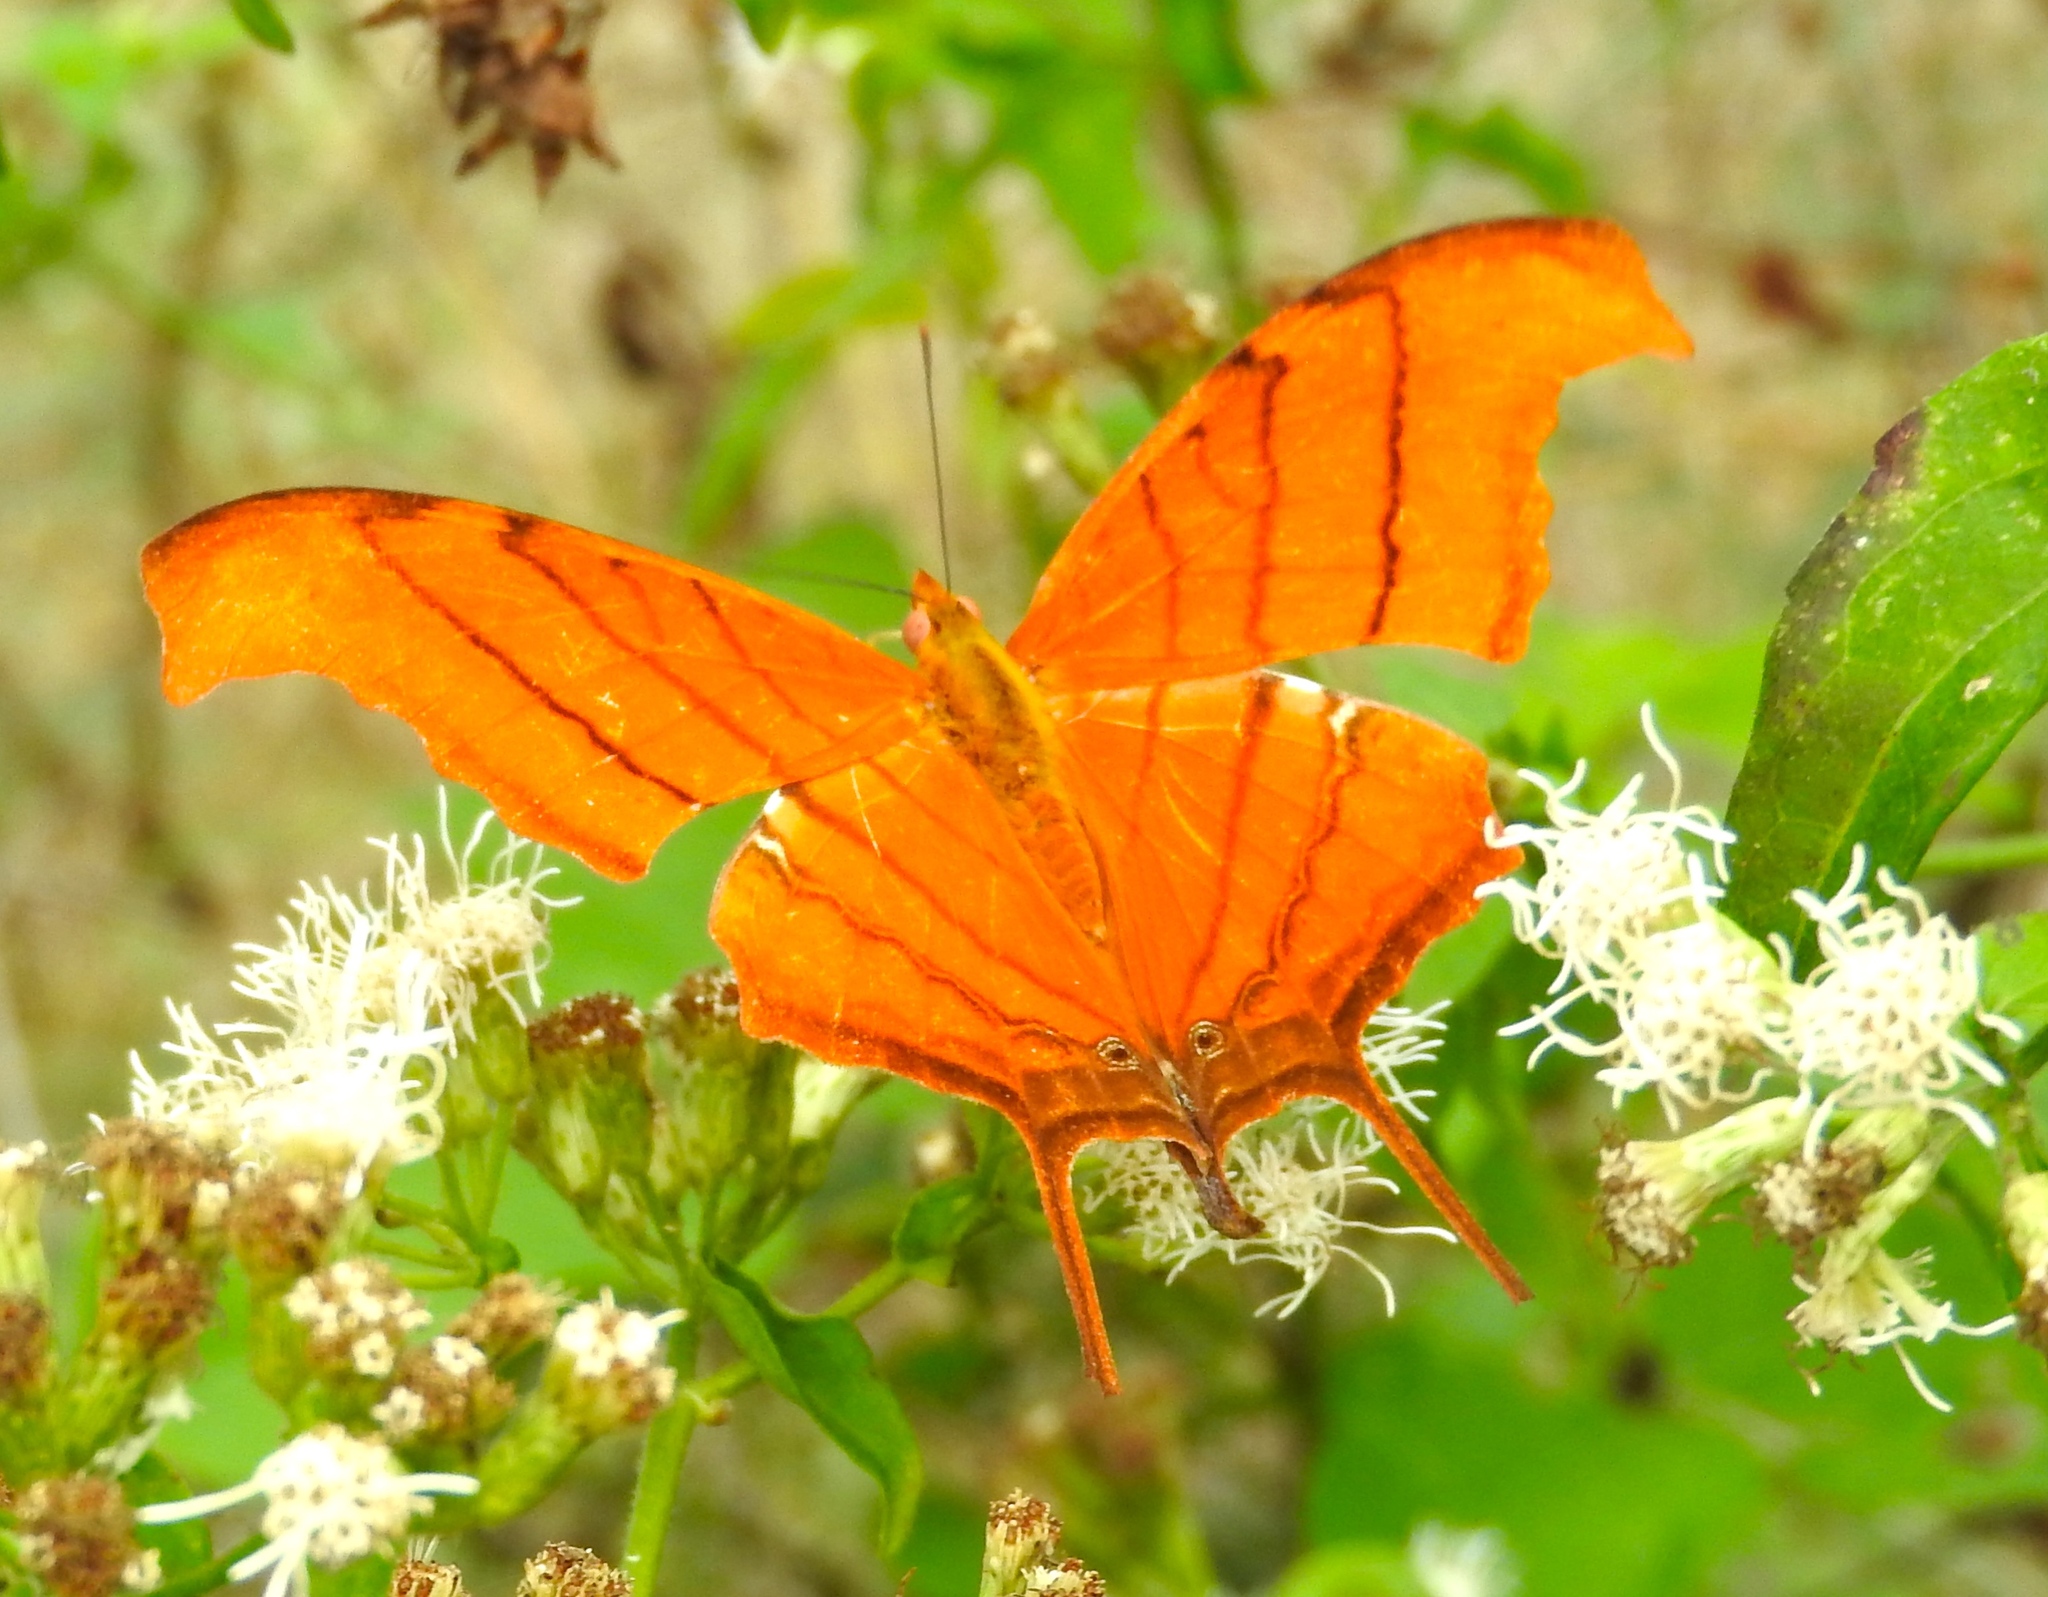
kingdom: Animalia
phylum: Arthropoda
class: Insecta
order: Lepidoptera
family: Nymphalidae
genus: Marpesia
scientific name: Marpesia petreus
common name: Red dagger wing
